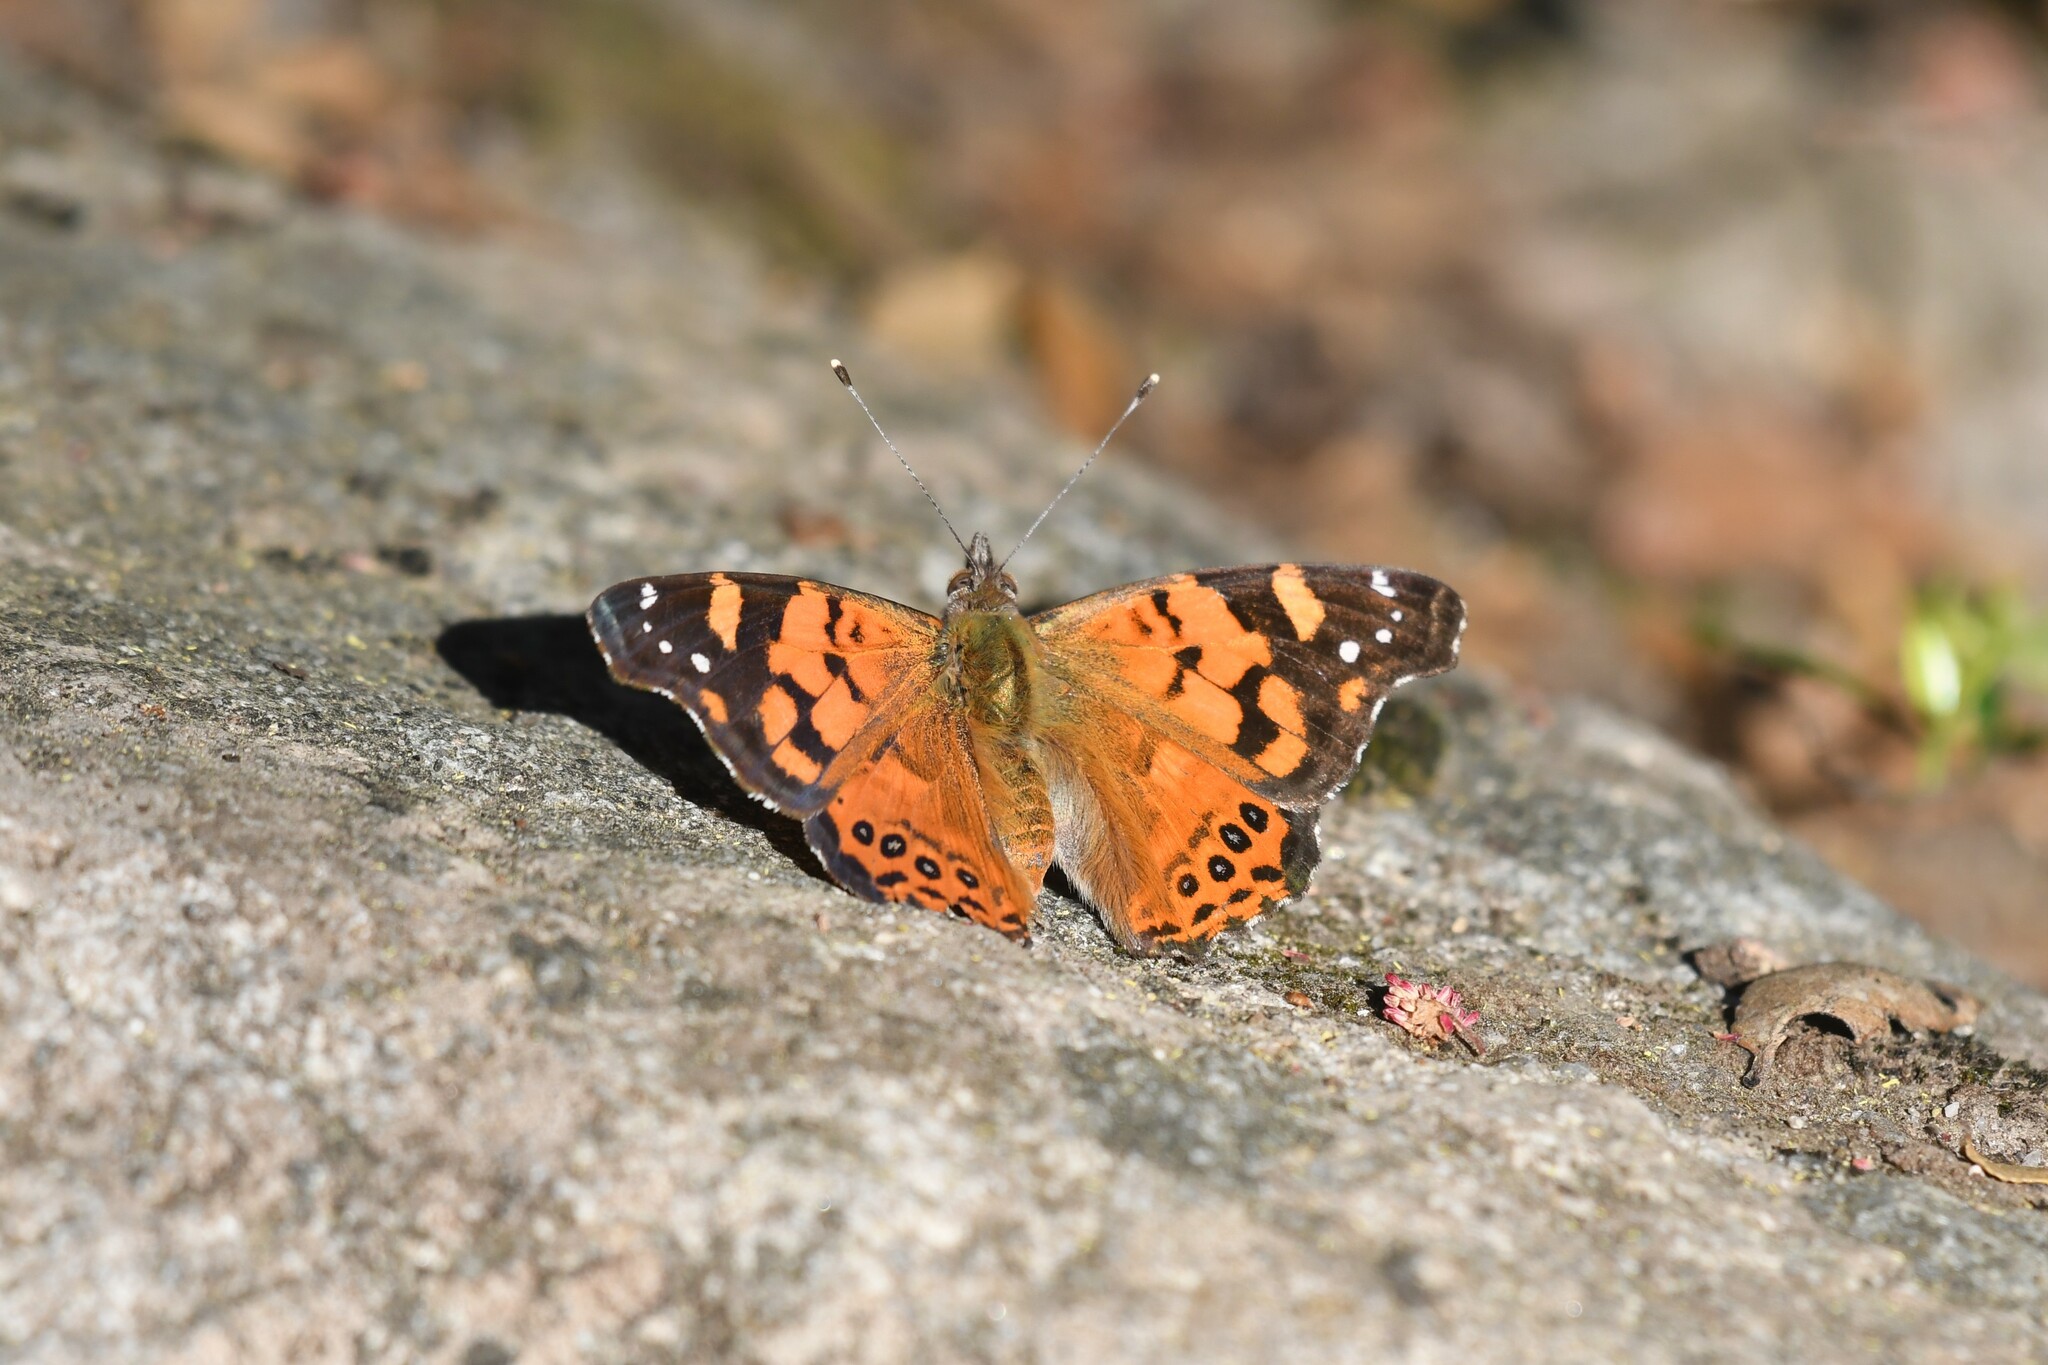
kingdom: Animalia
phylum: Arthropoda
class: Insecta
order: Lepidoptera
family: Nymphalidae
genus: Vanessa
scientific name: Vanessa carye
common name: Subtropical lady
